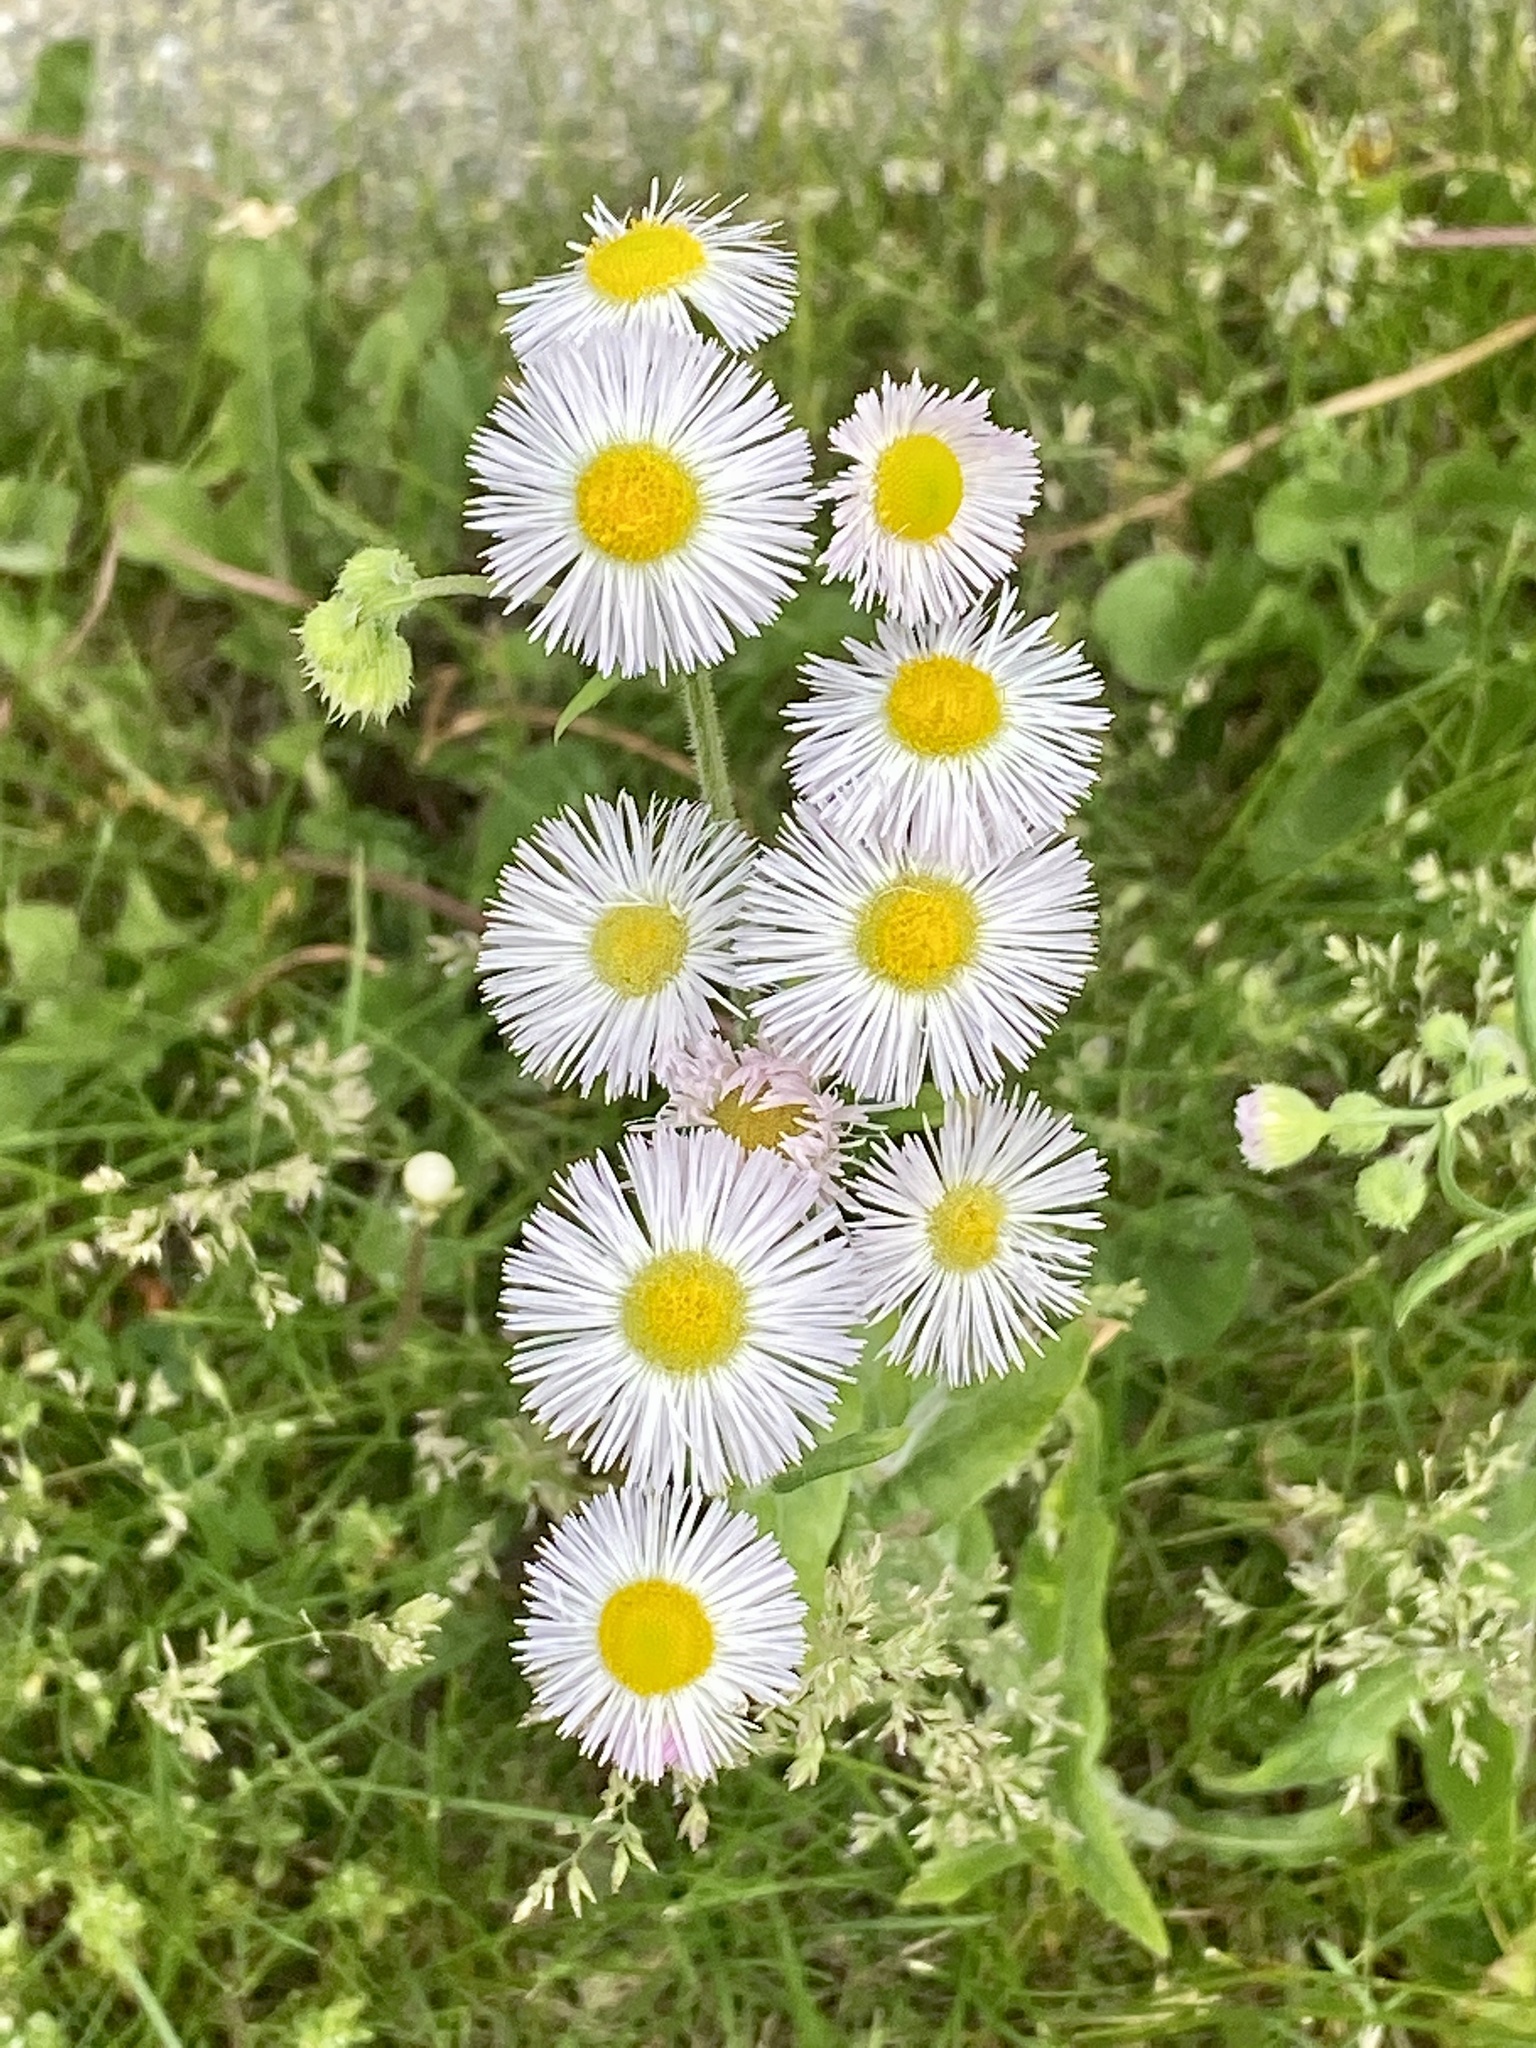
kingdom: Plantae
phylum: Tracheophyta
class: Magnoliopsida
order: Asterales
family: Asteraceae
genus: Erigeron
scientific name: Erigeron philadelphicus
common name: Robin's-plantain
